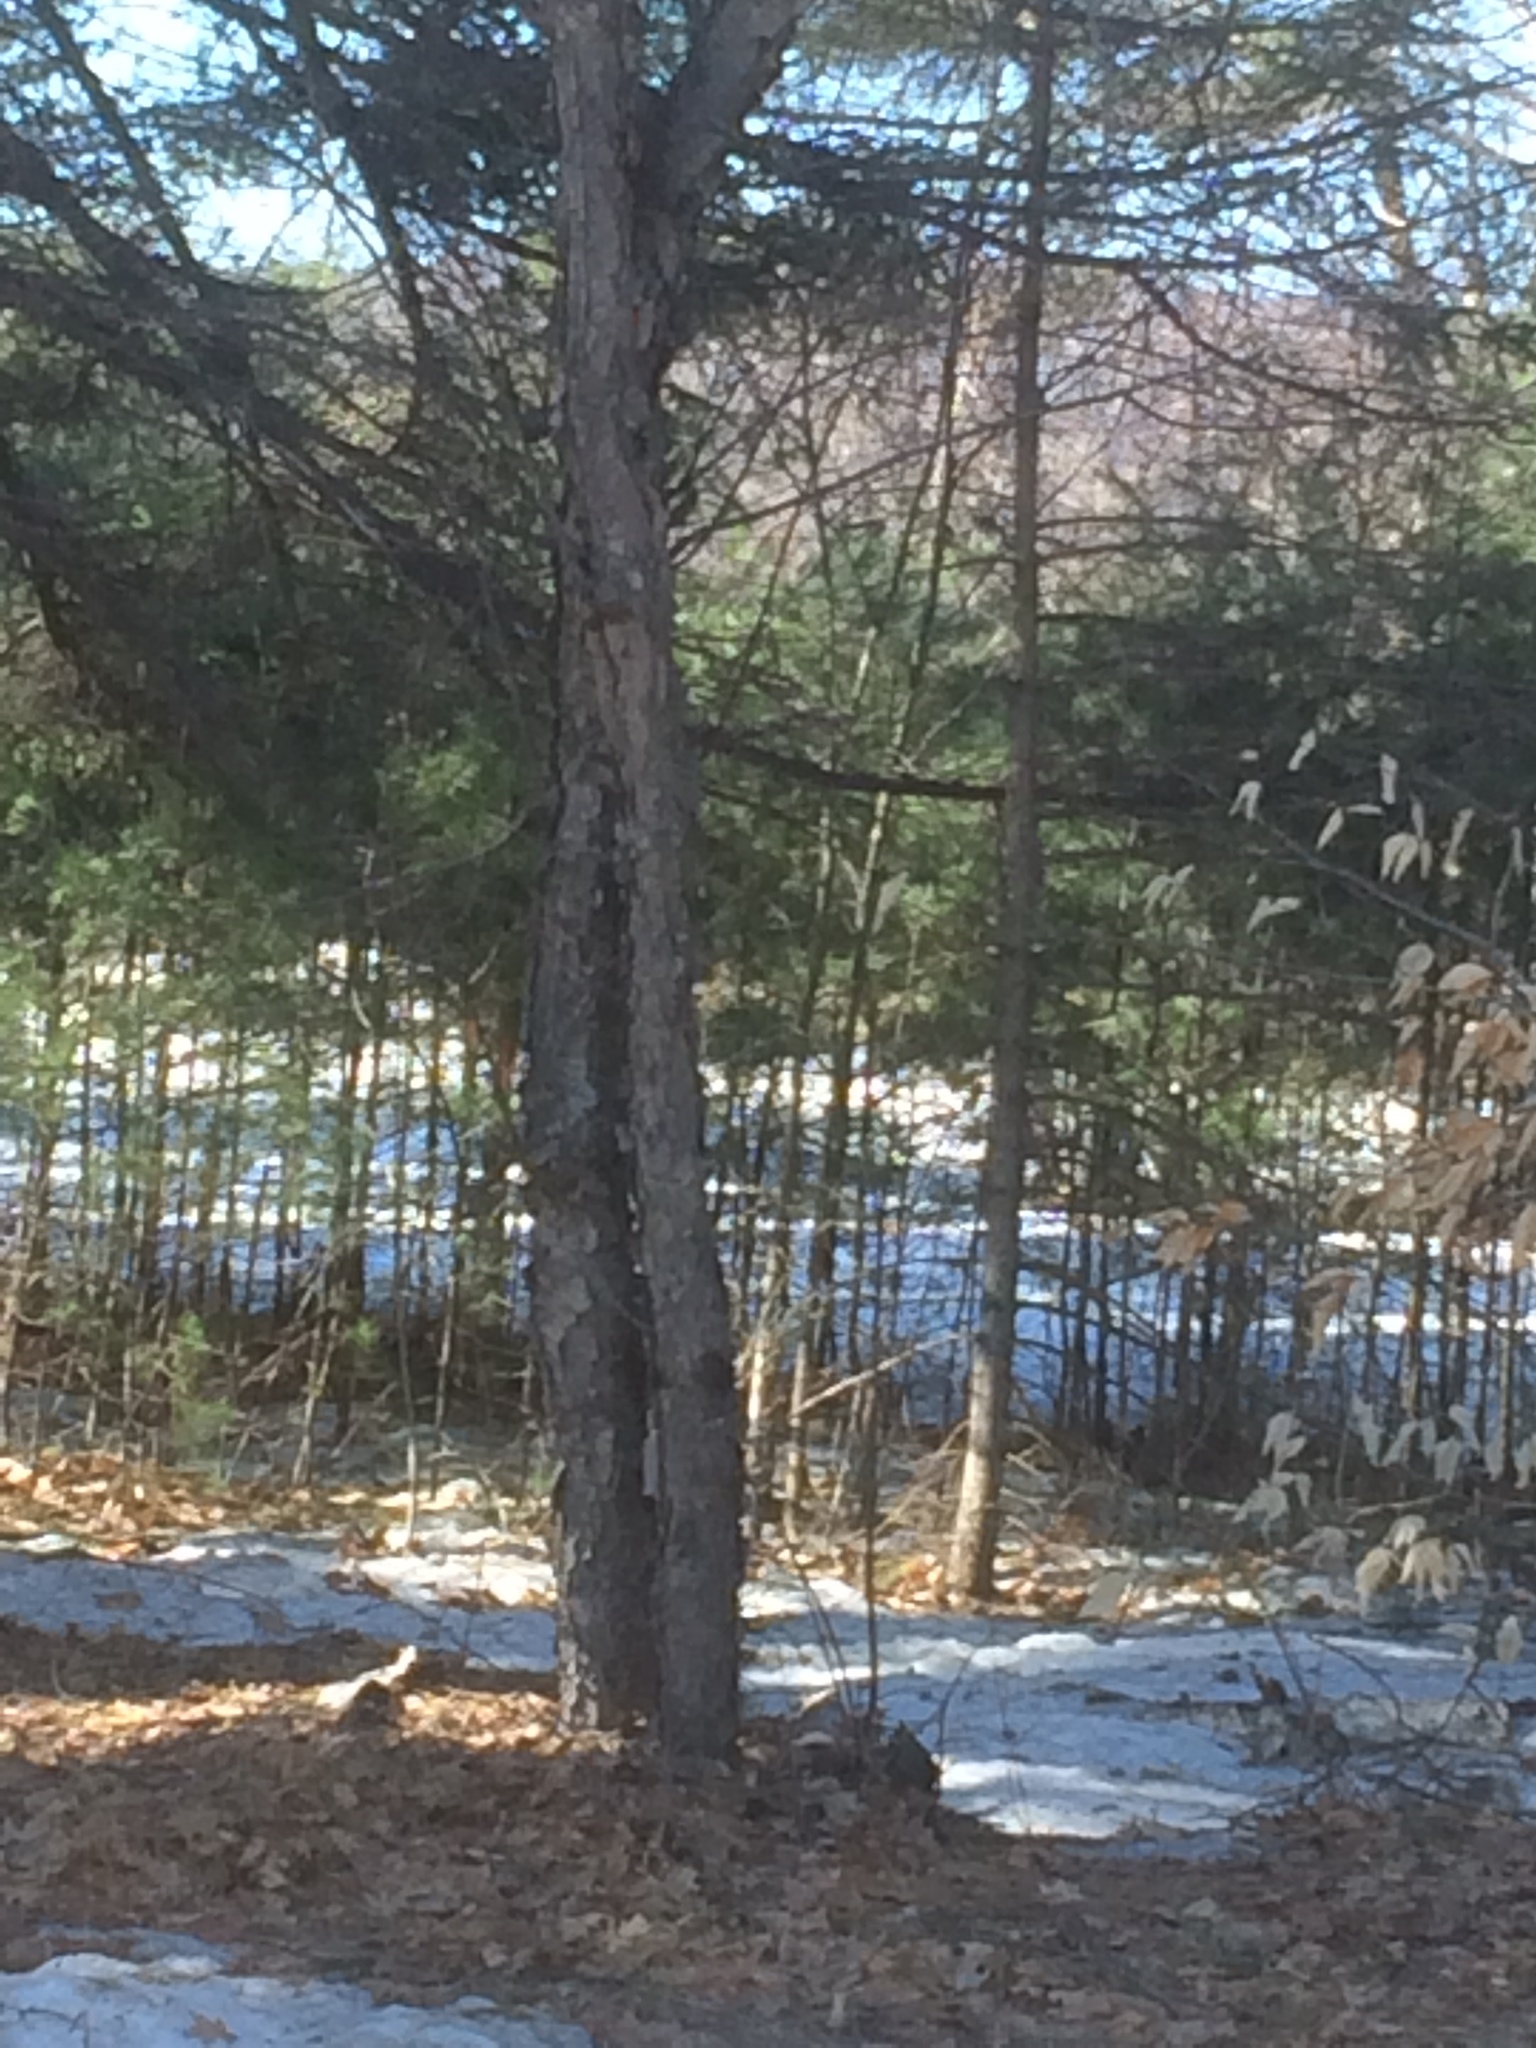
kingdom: Plantae
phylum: Tracheophyta
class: Magnoliopsida
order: Rosales
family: Rosaceae
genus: Prunus
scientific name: Prunus serotina
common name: Black cherry
